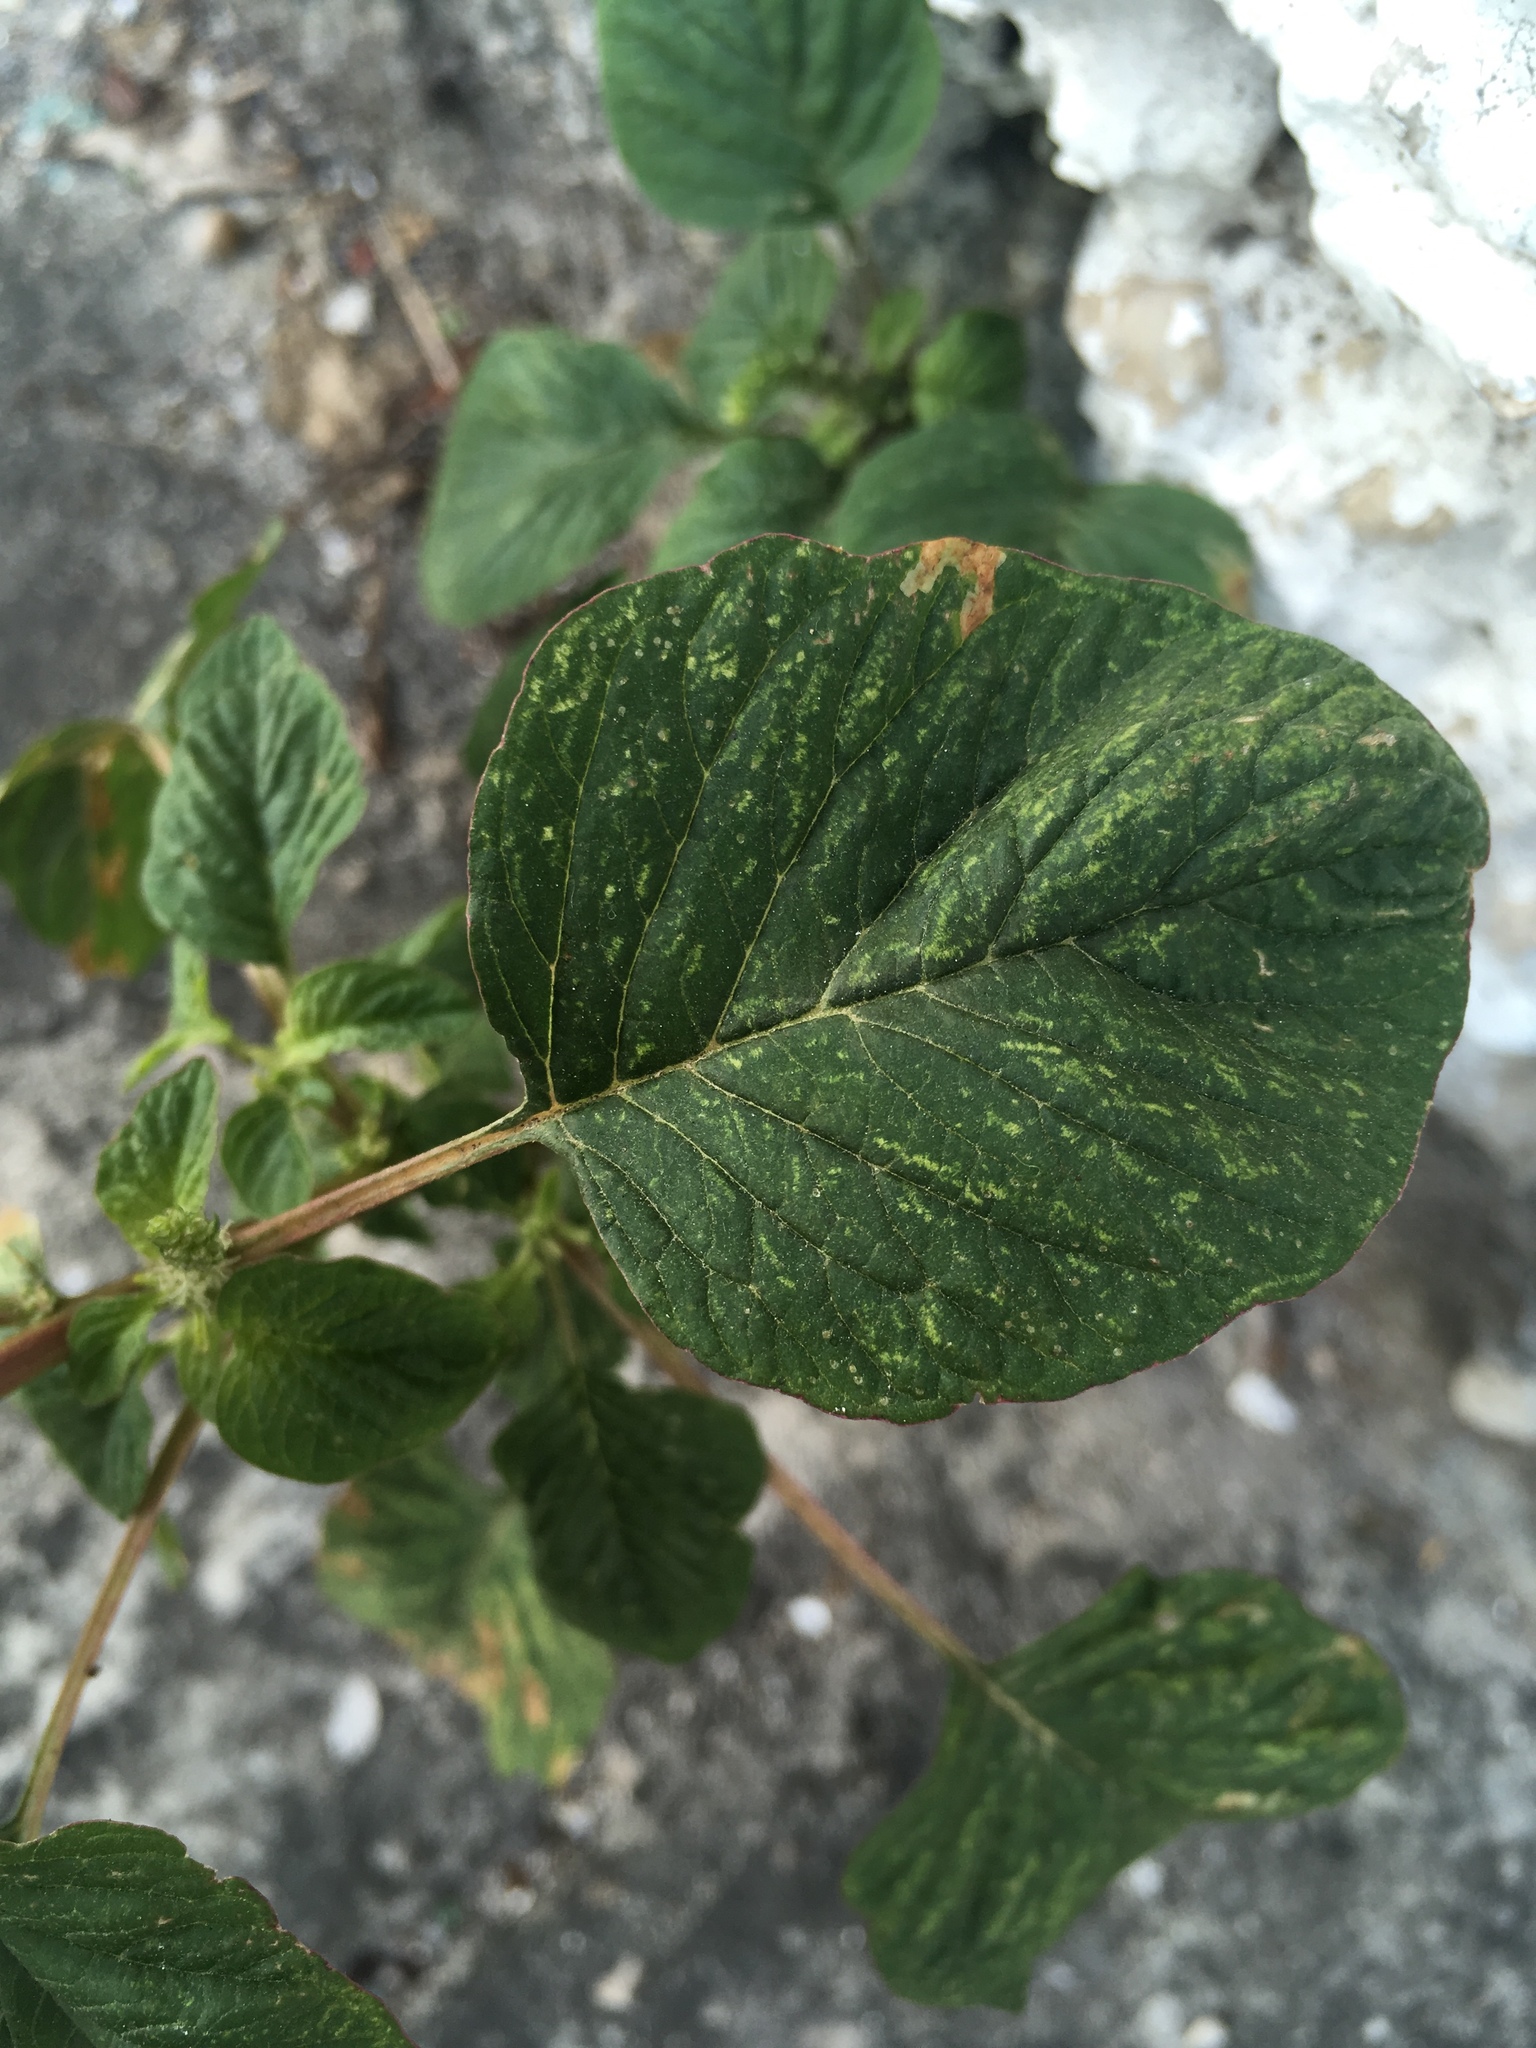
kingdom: Plantae
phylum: Tracheophyta
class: Magnoliopsida
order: Caryophyllales
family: Amaranthaceae
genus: Amaranthus
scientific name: Amaranthus hybridus
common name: Green amaranth
